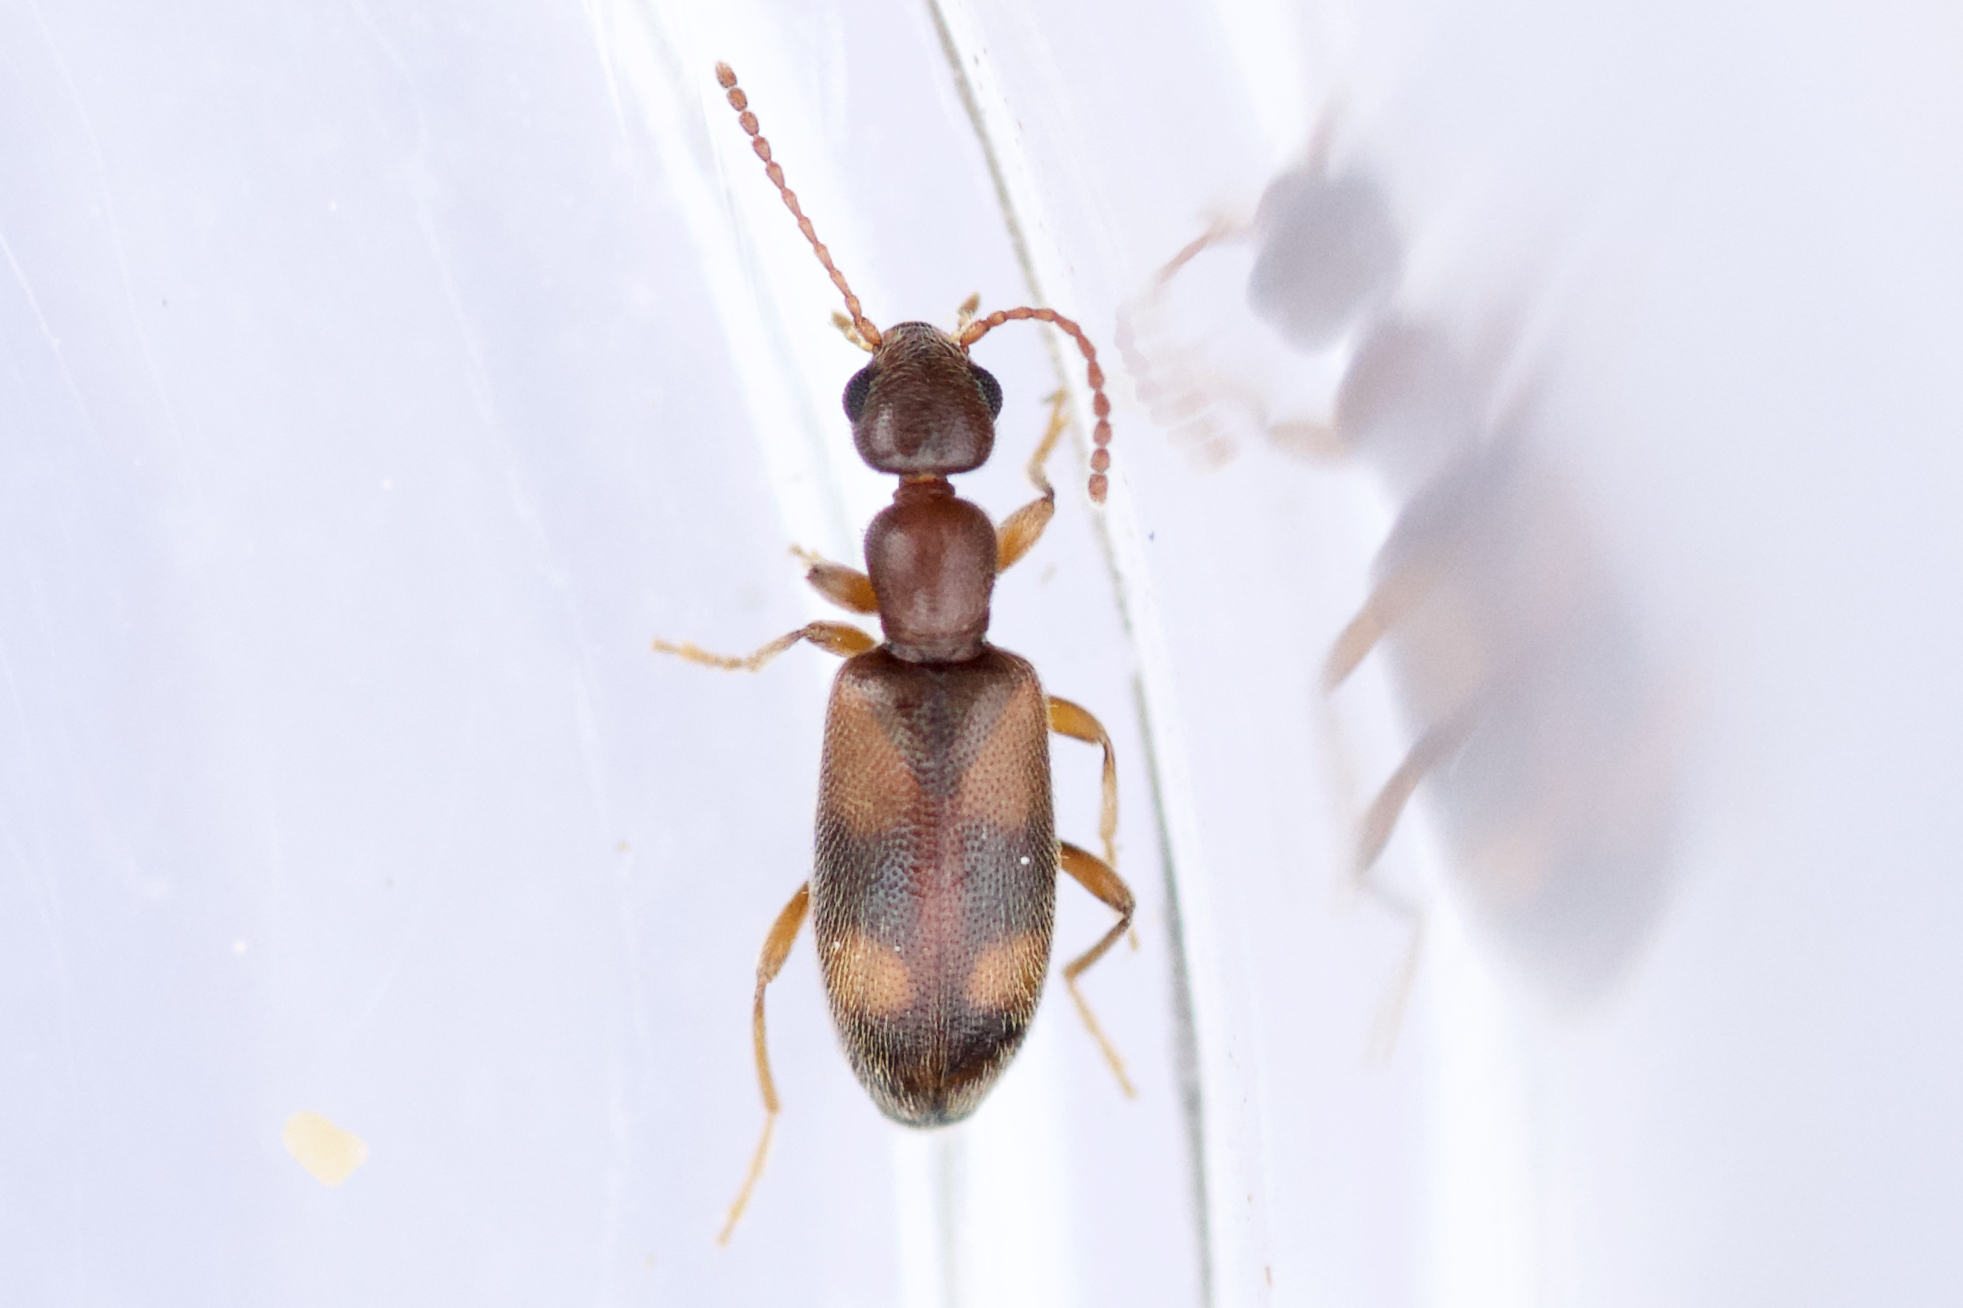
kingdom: Animalia
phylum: Arthropoda
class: Insecta
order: Coleoptera
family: Anthicidae
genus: Anthicus
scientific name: Anthicus cervinus
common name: Cloudy flower beetle
